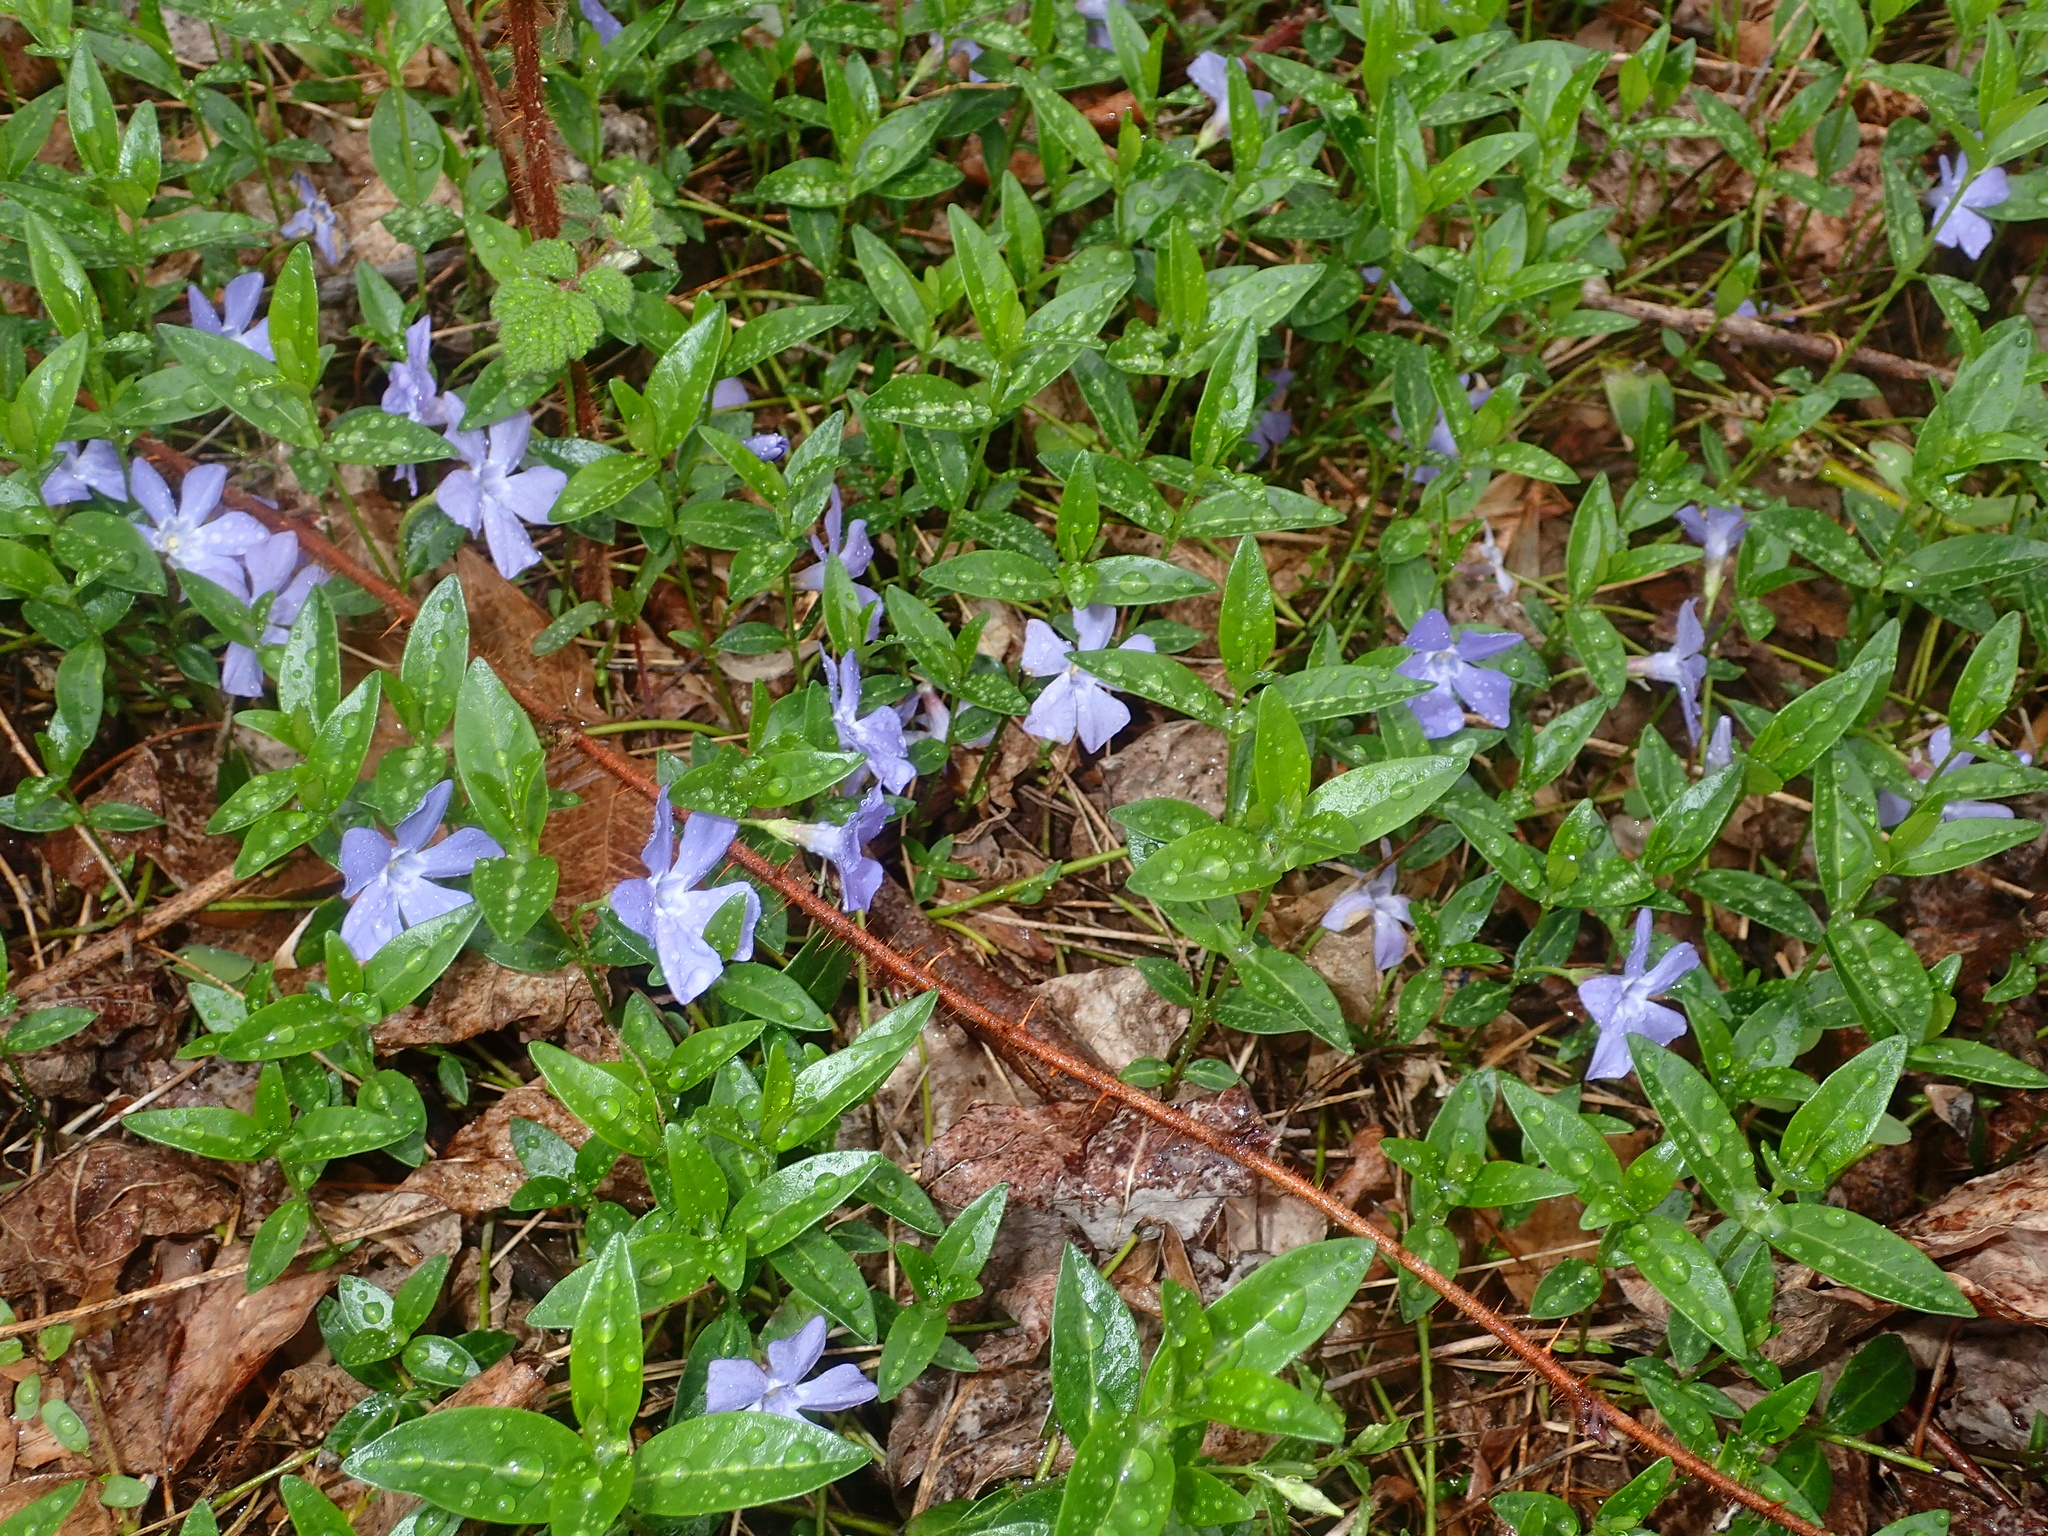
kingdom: Plantae
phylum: Tracheophyta
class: Magnoliopsida
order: Gentianales
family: Apocynaceae
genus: Vinca
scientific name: Vinca minor
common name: Lesser periwinkle
